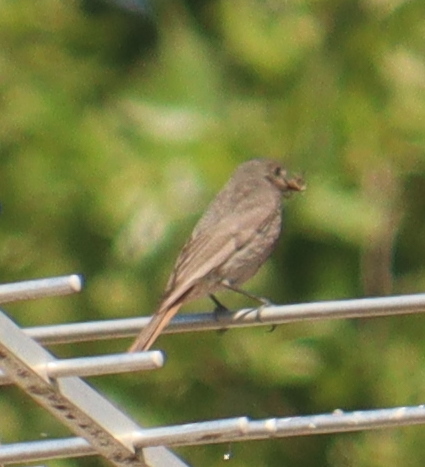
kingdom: Animalia
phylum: Chordata
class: Aves
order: Passeriformes
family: Muscicapidae
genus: Phoenicurus
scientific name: Phoenicurus ochruros
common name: Black redstart
